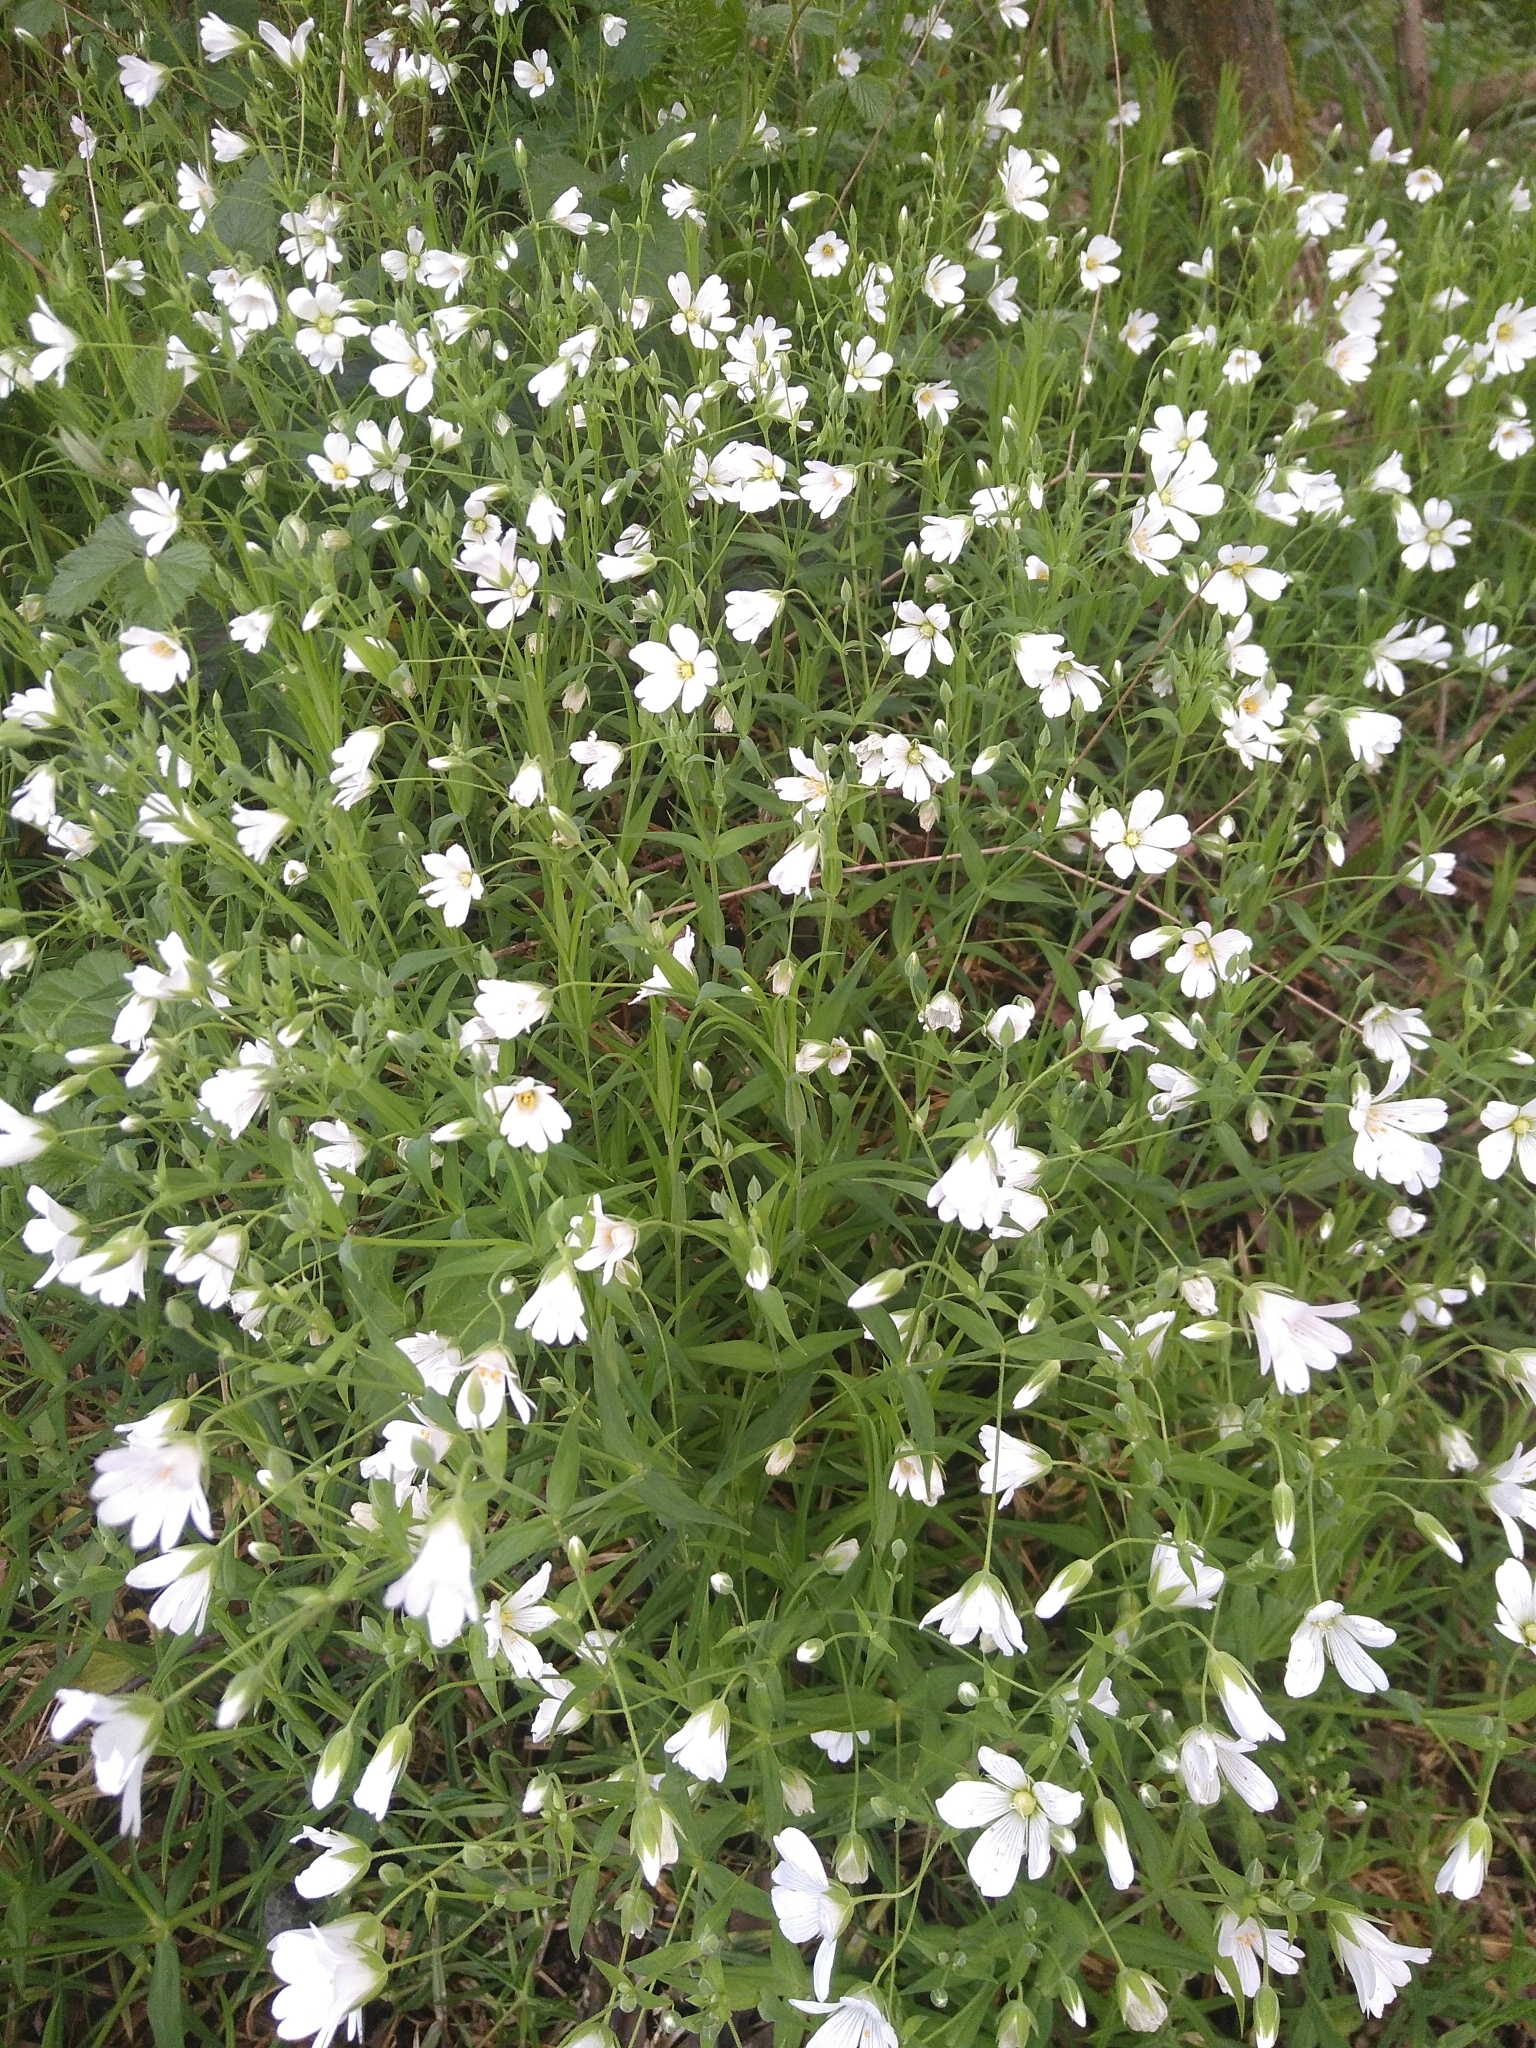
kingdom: Plantae
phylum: Tracheophyta
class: Magnoliopsida
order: Caryophyllales
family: Caryophyllaceae
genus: Rabelera
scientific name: Rabelera holostea
